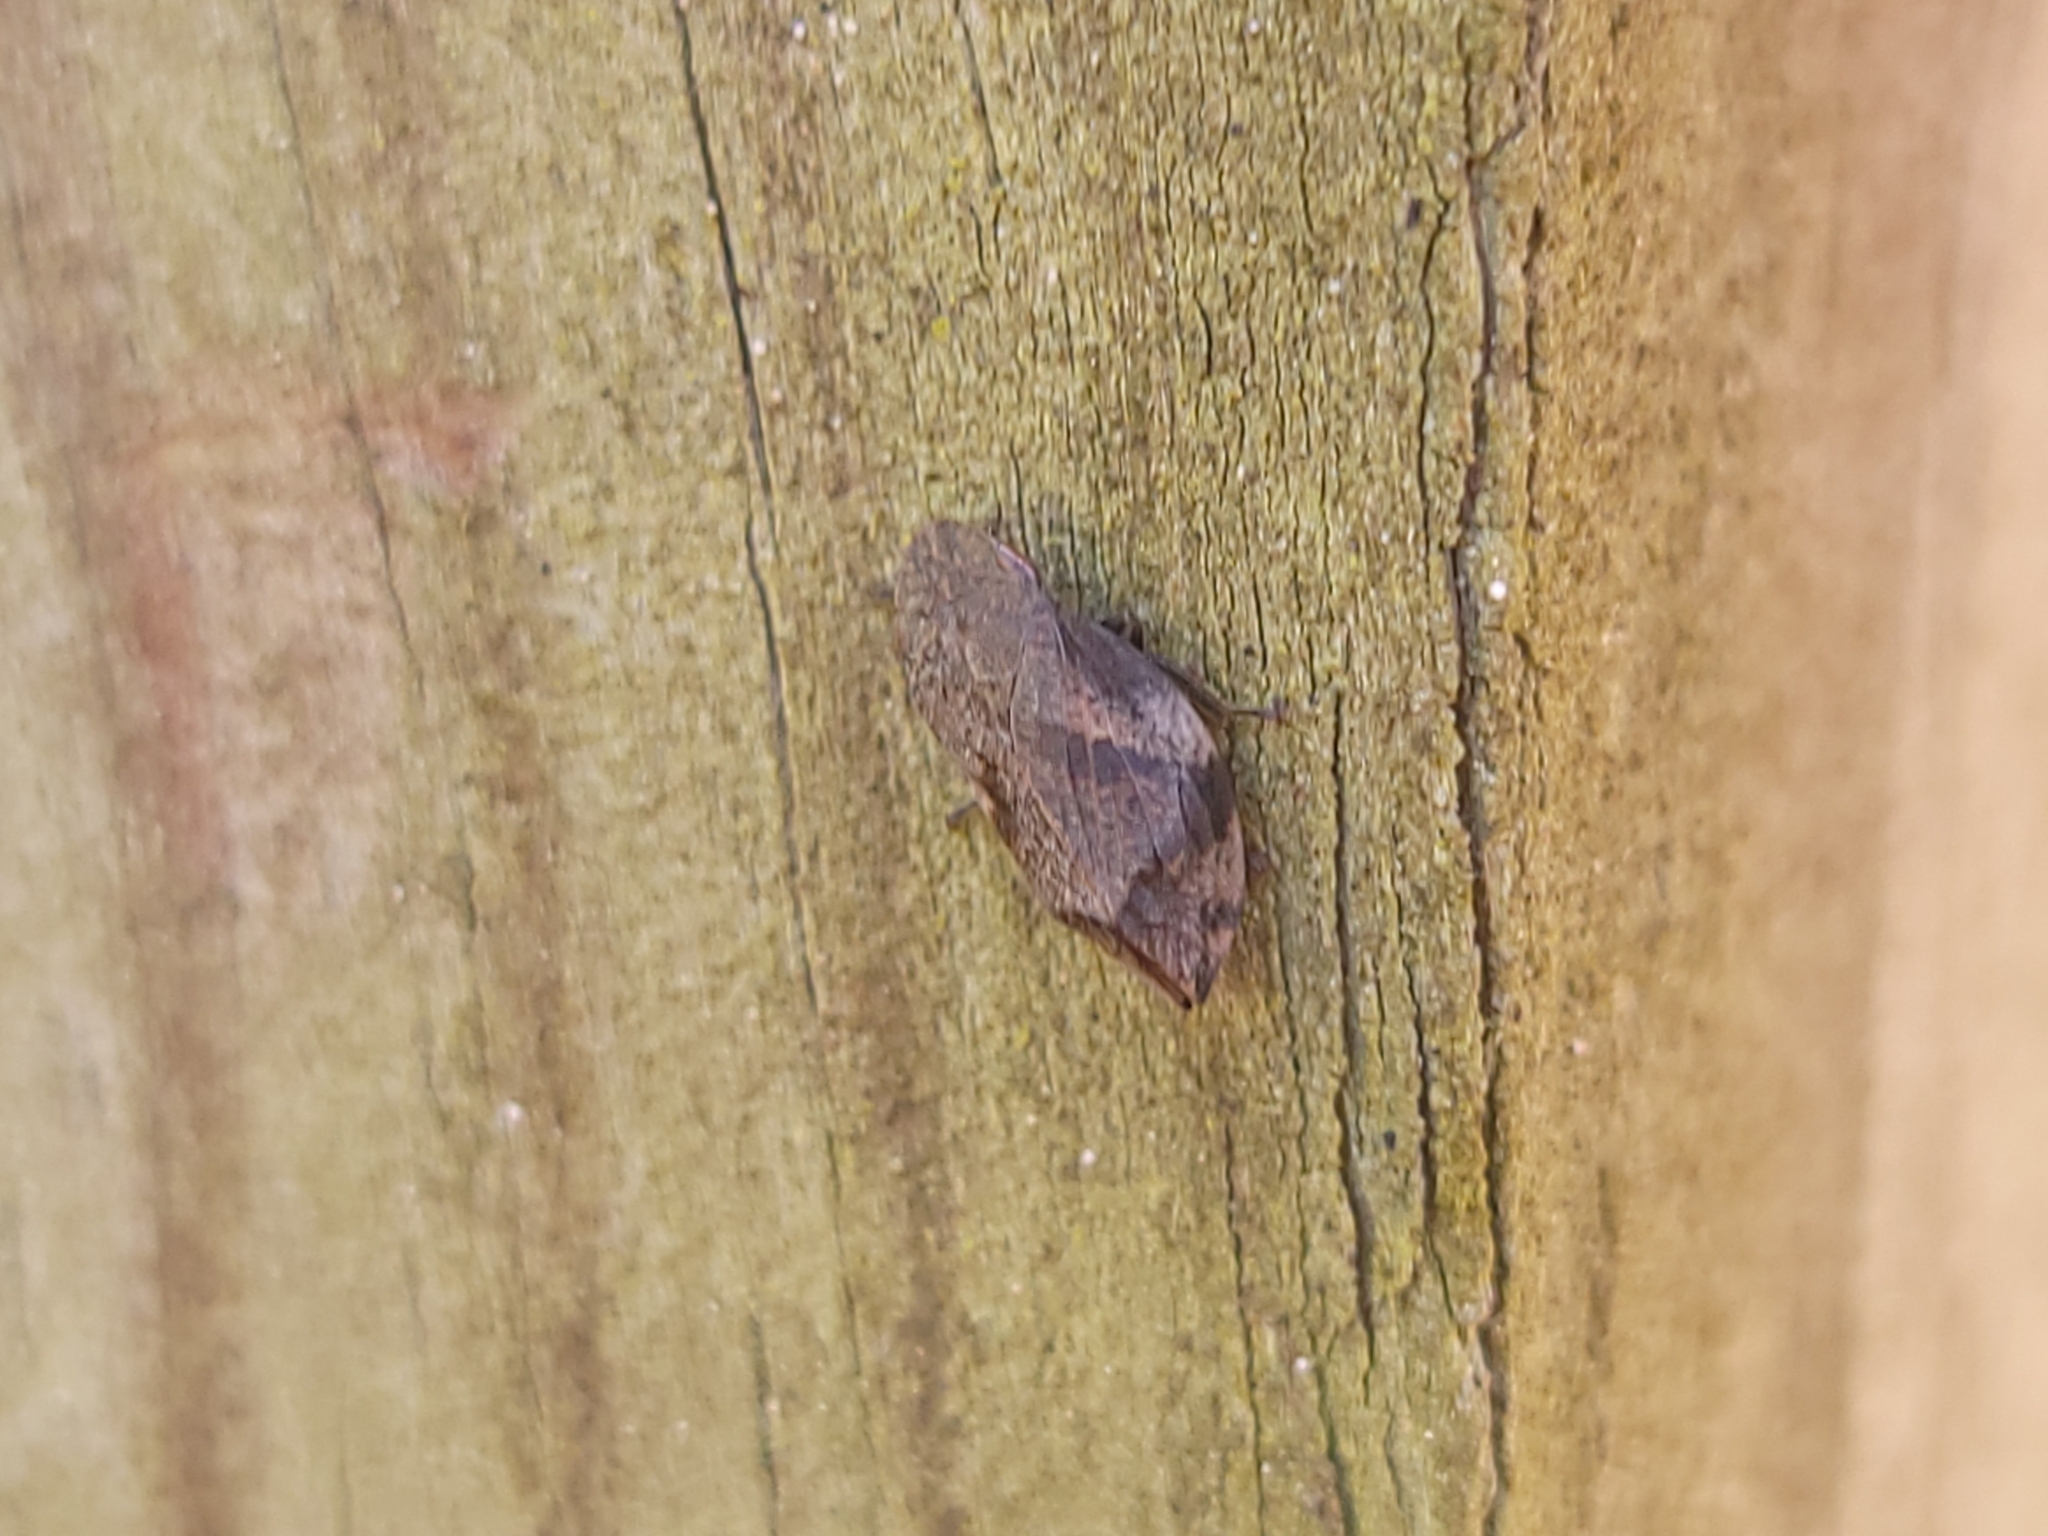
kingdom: Animalia
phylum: Arthropoda
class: Insecta
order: Hemiptera
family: Aphrophoridae
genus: Lepyronia
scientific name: Lepyronia quadrangularis
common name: Diamond-backed spittlebug
